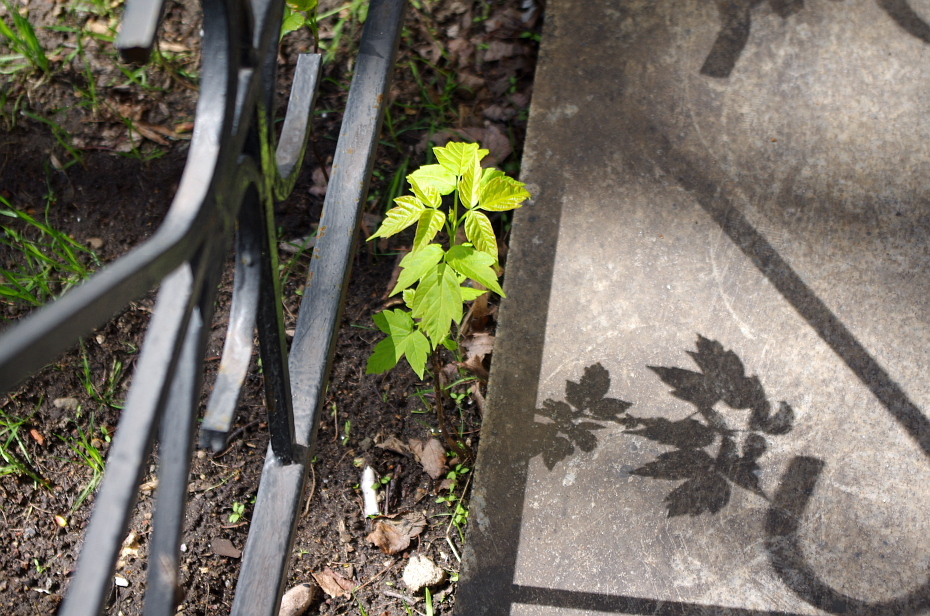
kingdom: Plantae
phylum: Tracheophyta
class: Magnoliopsida
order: Sapindales
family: Sapindaceae
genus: Acer
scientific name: Acer negundo
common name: Ashleaf maple
